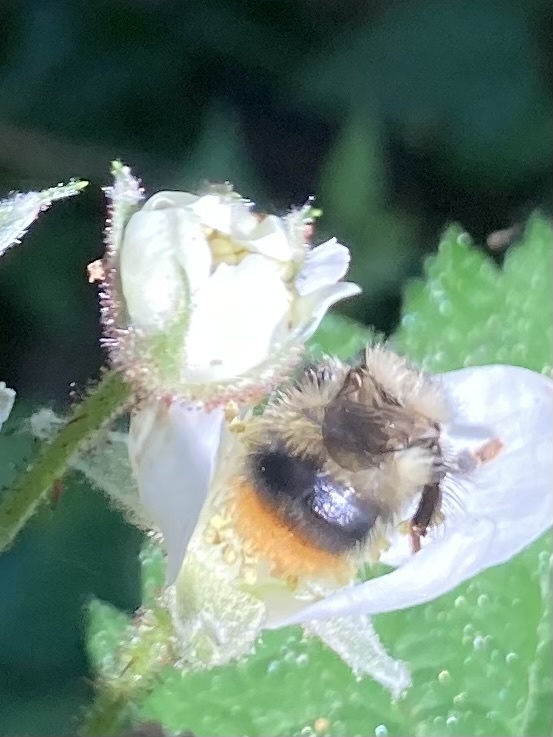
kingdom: Animalia
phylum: Arthropoda
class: Insecta
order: Hymenoptera
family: Apidae
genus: Bombus
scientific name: Bombus mixtus
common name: Fuzzy-horned bumble bee
